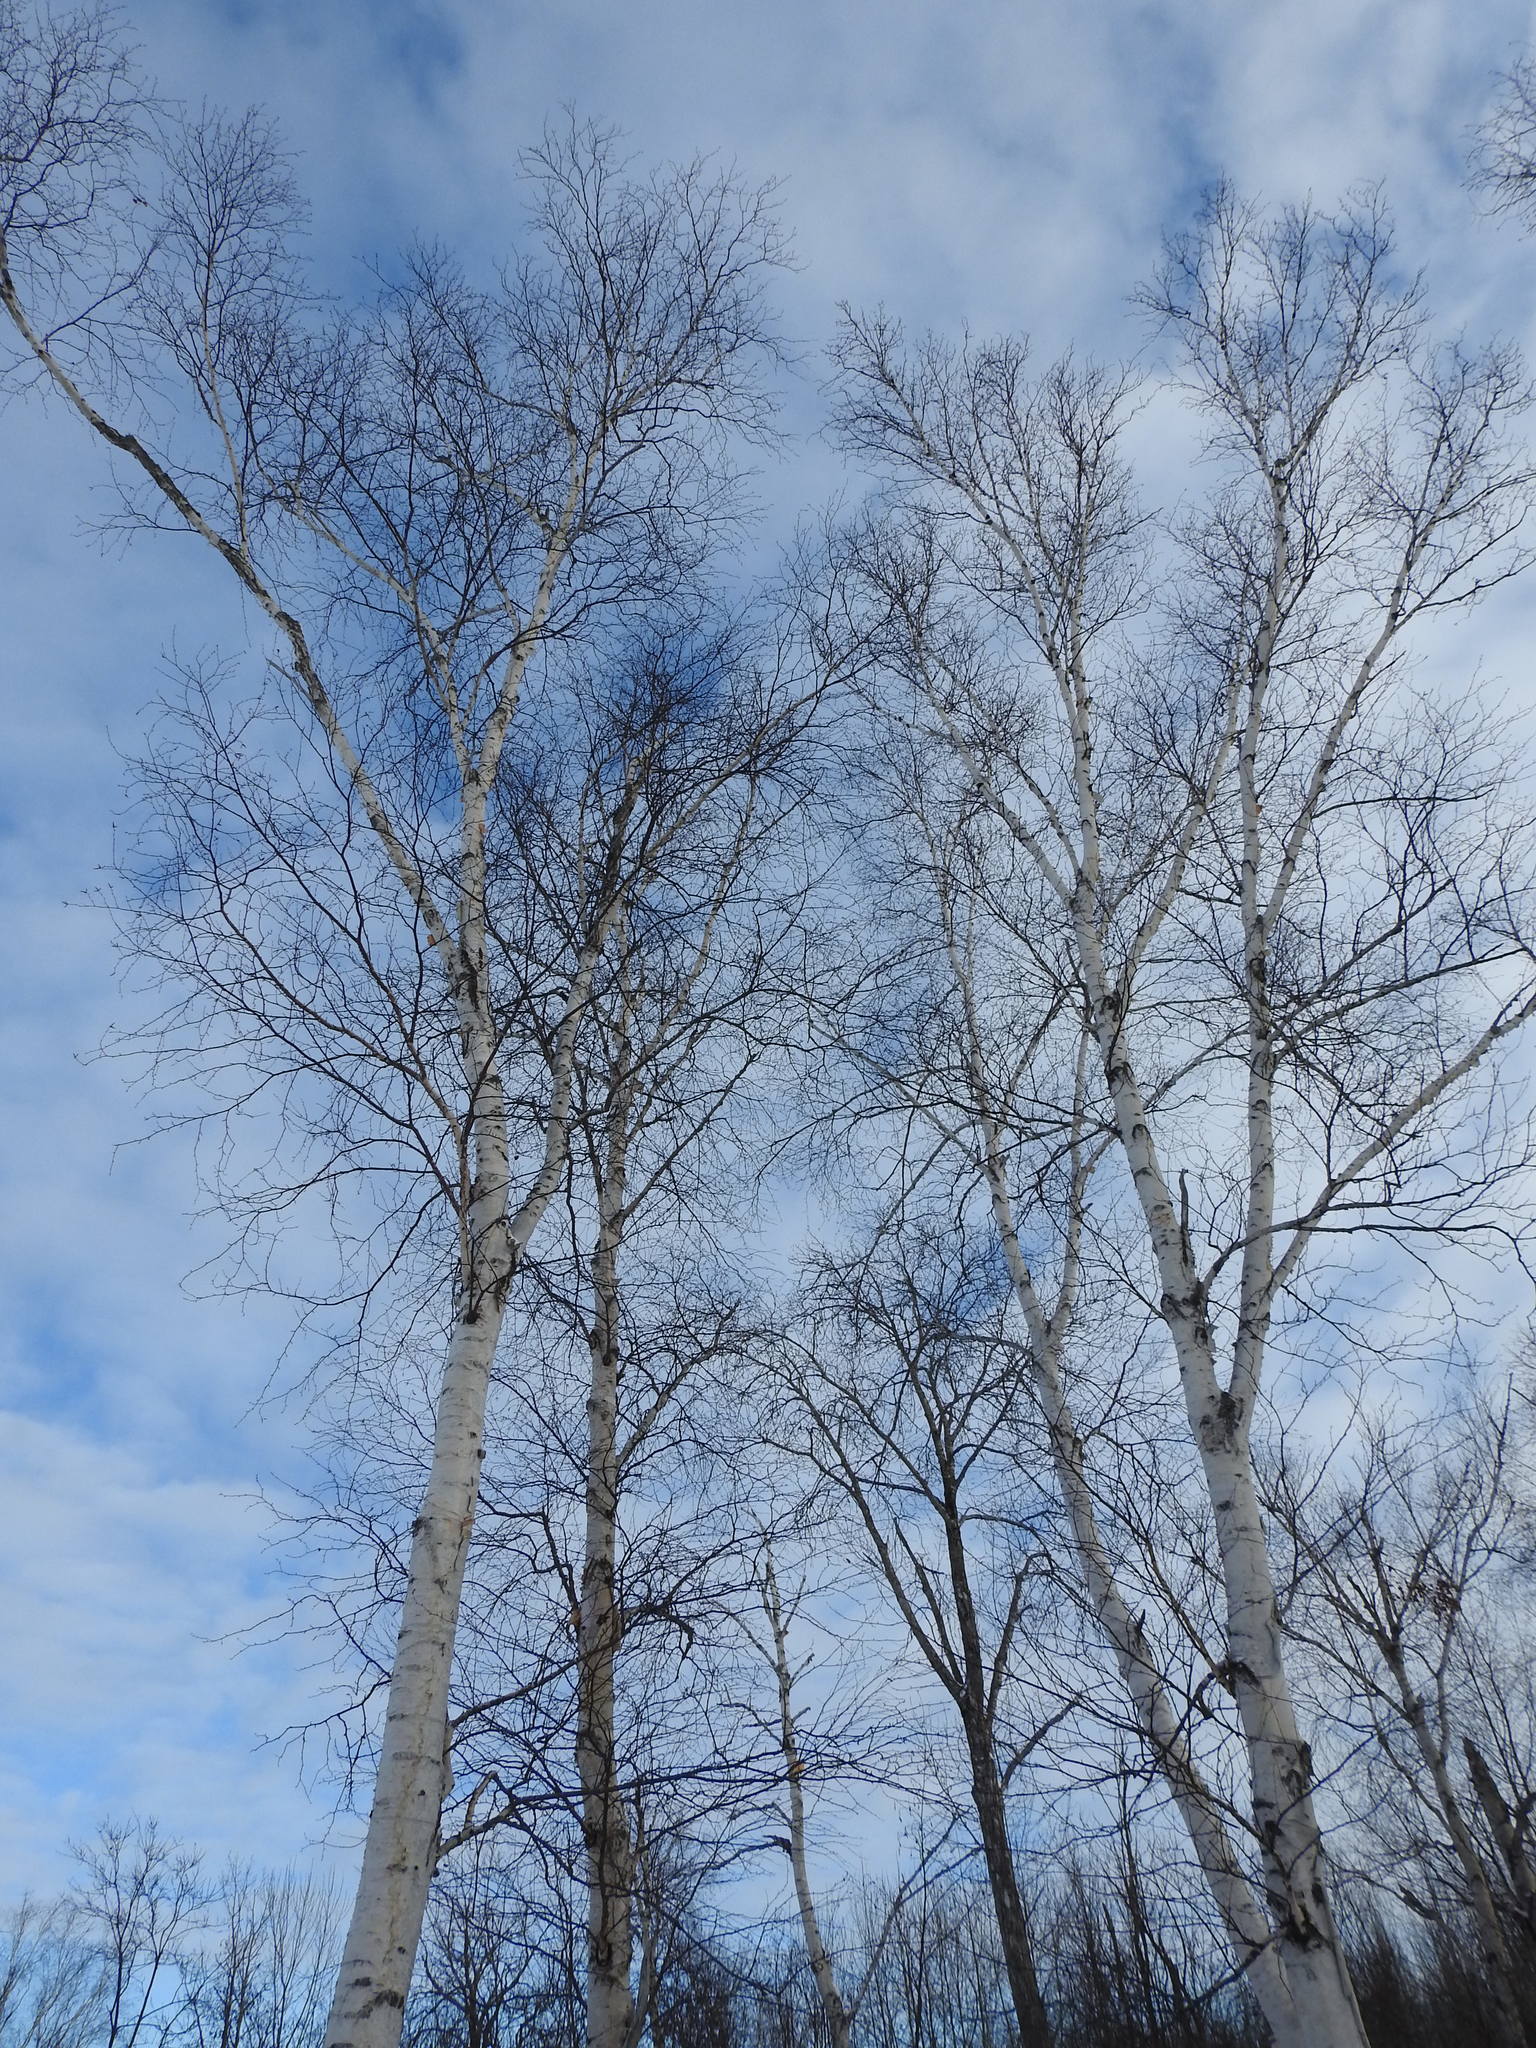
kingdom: Plantae
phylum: Tracheophyta
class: Magnoliopsida
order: Fagales
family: Betulaceae
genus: Betula
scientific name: Betula papyrifera
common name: Paper birch
